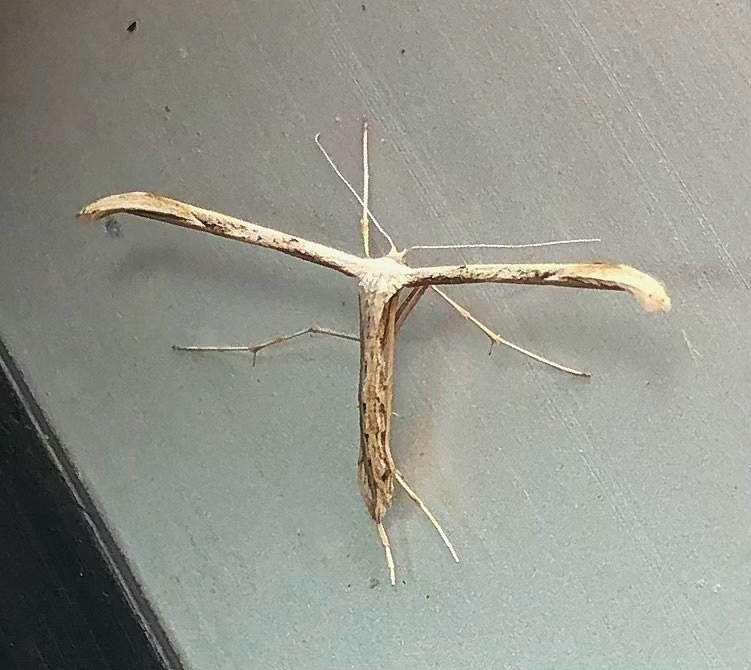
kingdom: Animalia
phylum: Arthropoda
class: Insecta
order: Lepidoptera
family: Pterophoridae
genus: Emmelina
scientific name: Emmelina monodactyla
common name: Common plume
